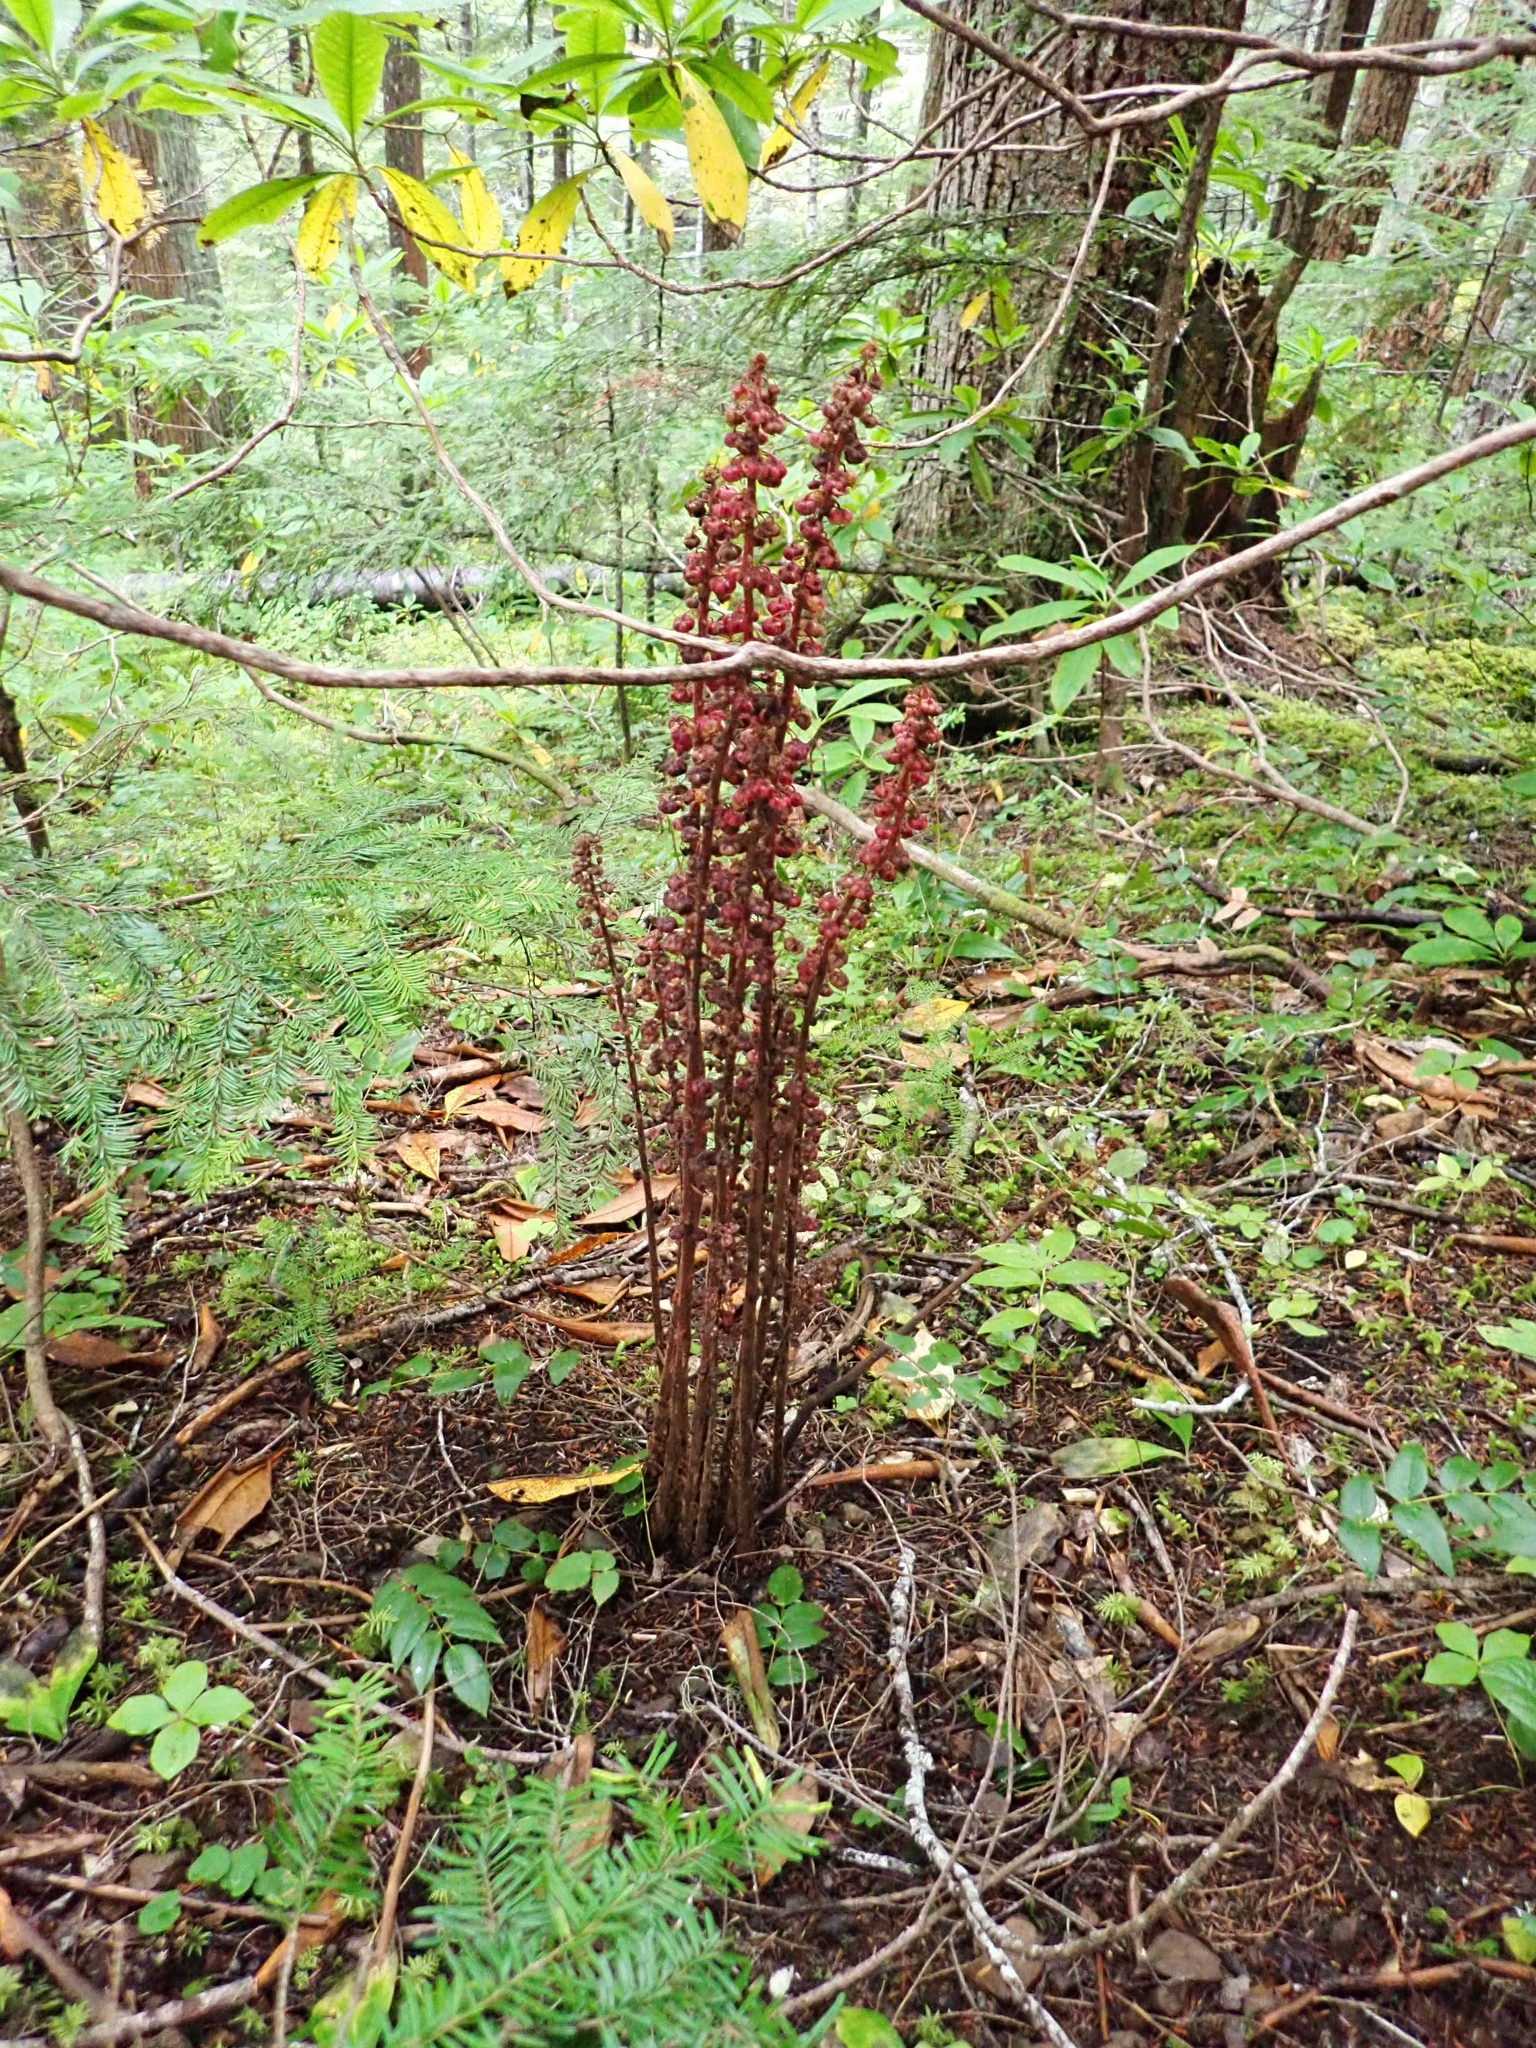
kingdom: Plantae
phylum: Tracheophyta
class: Magnoliopsida
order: Ericales
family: Ericaceae
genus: Pterospora
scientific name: Pterospora andromedea
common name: Giant bird's-nest
